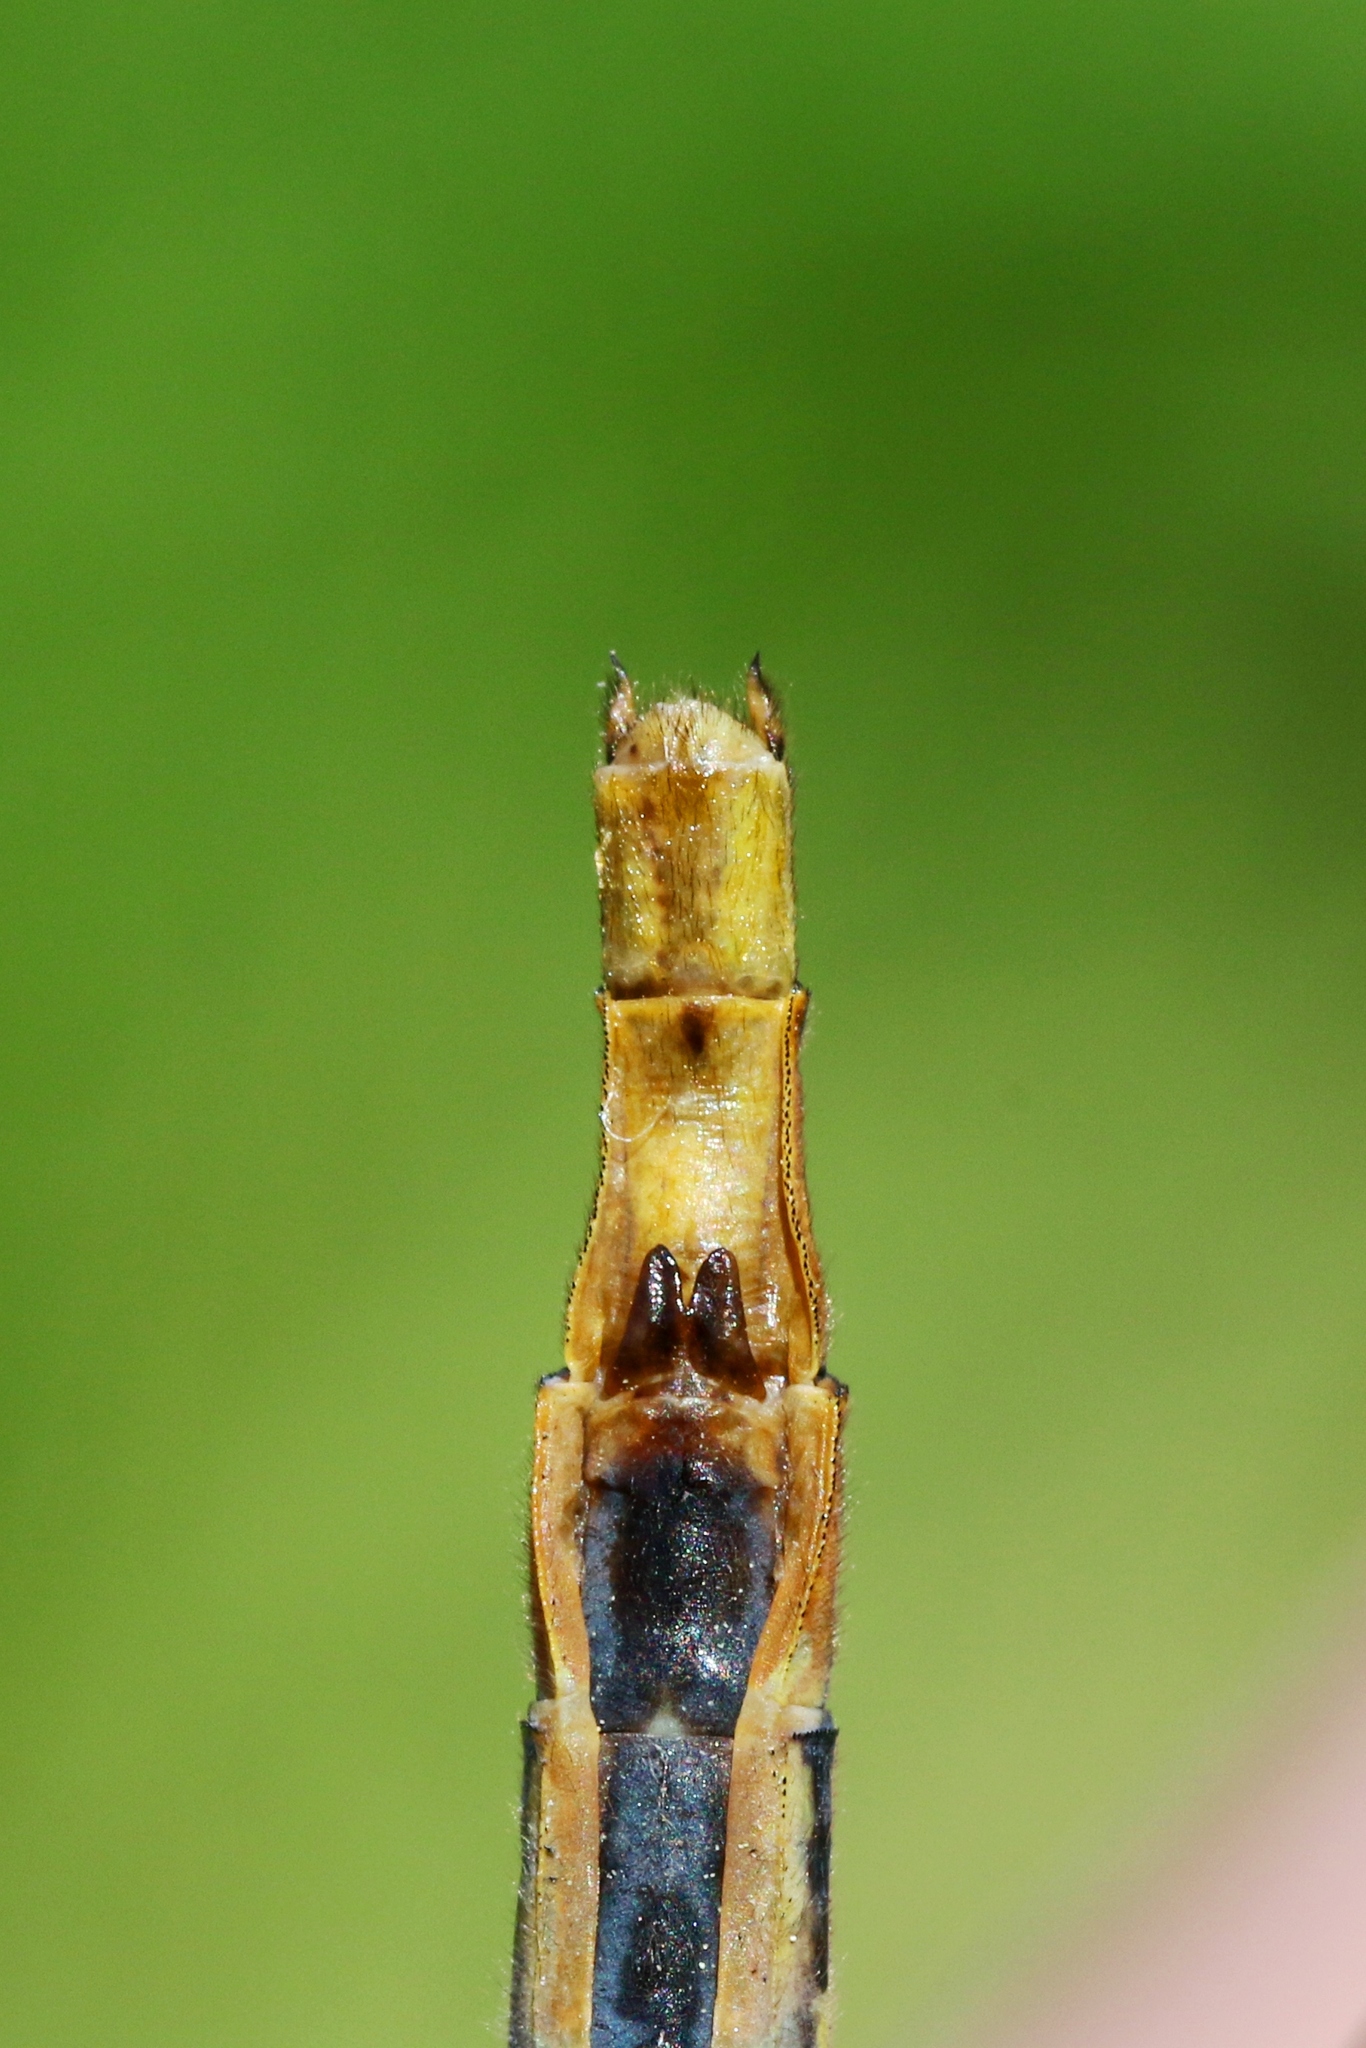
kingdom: Animalia
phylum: Arthropoda
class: Insecta
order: Odonata
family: Gomphidae
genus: Arigomphus
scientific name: Arigomphus furcifer
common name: Lilypad clubtail
